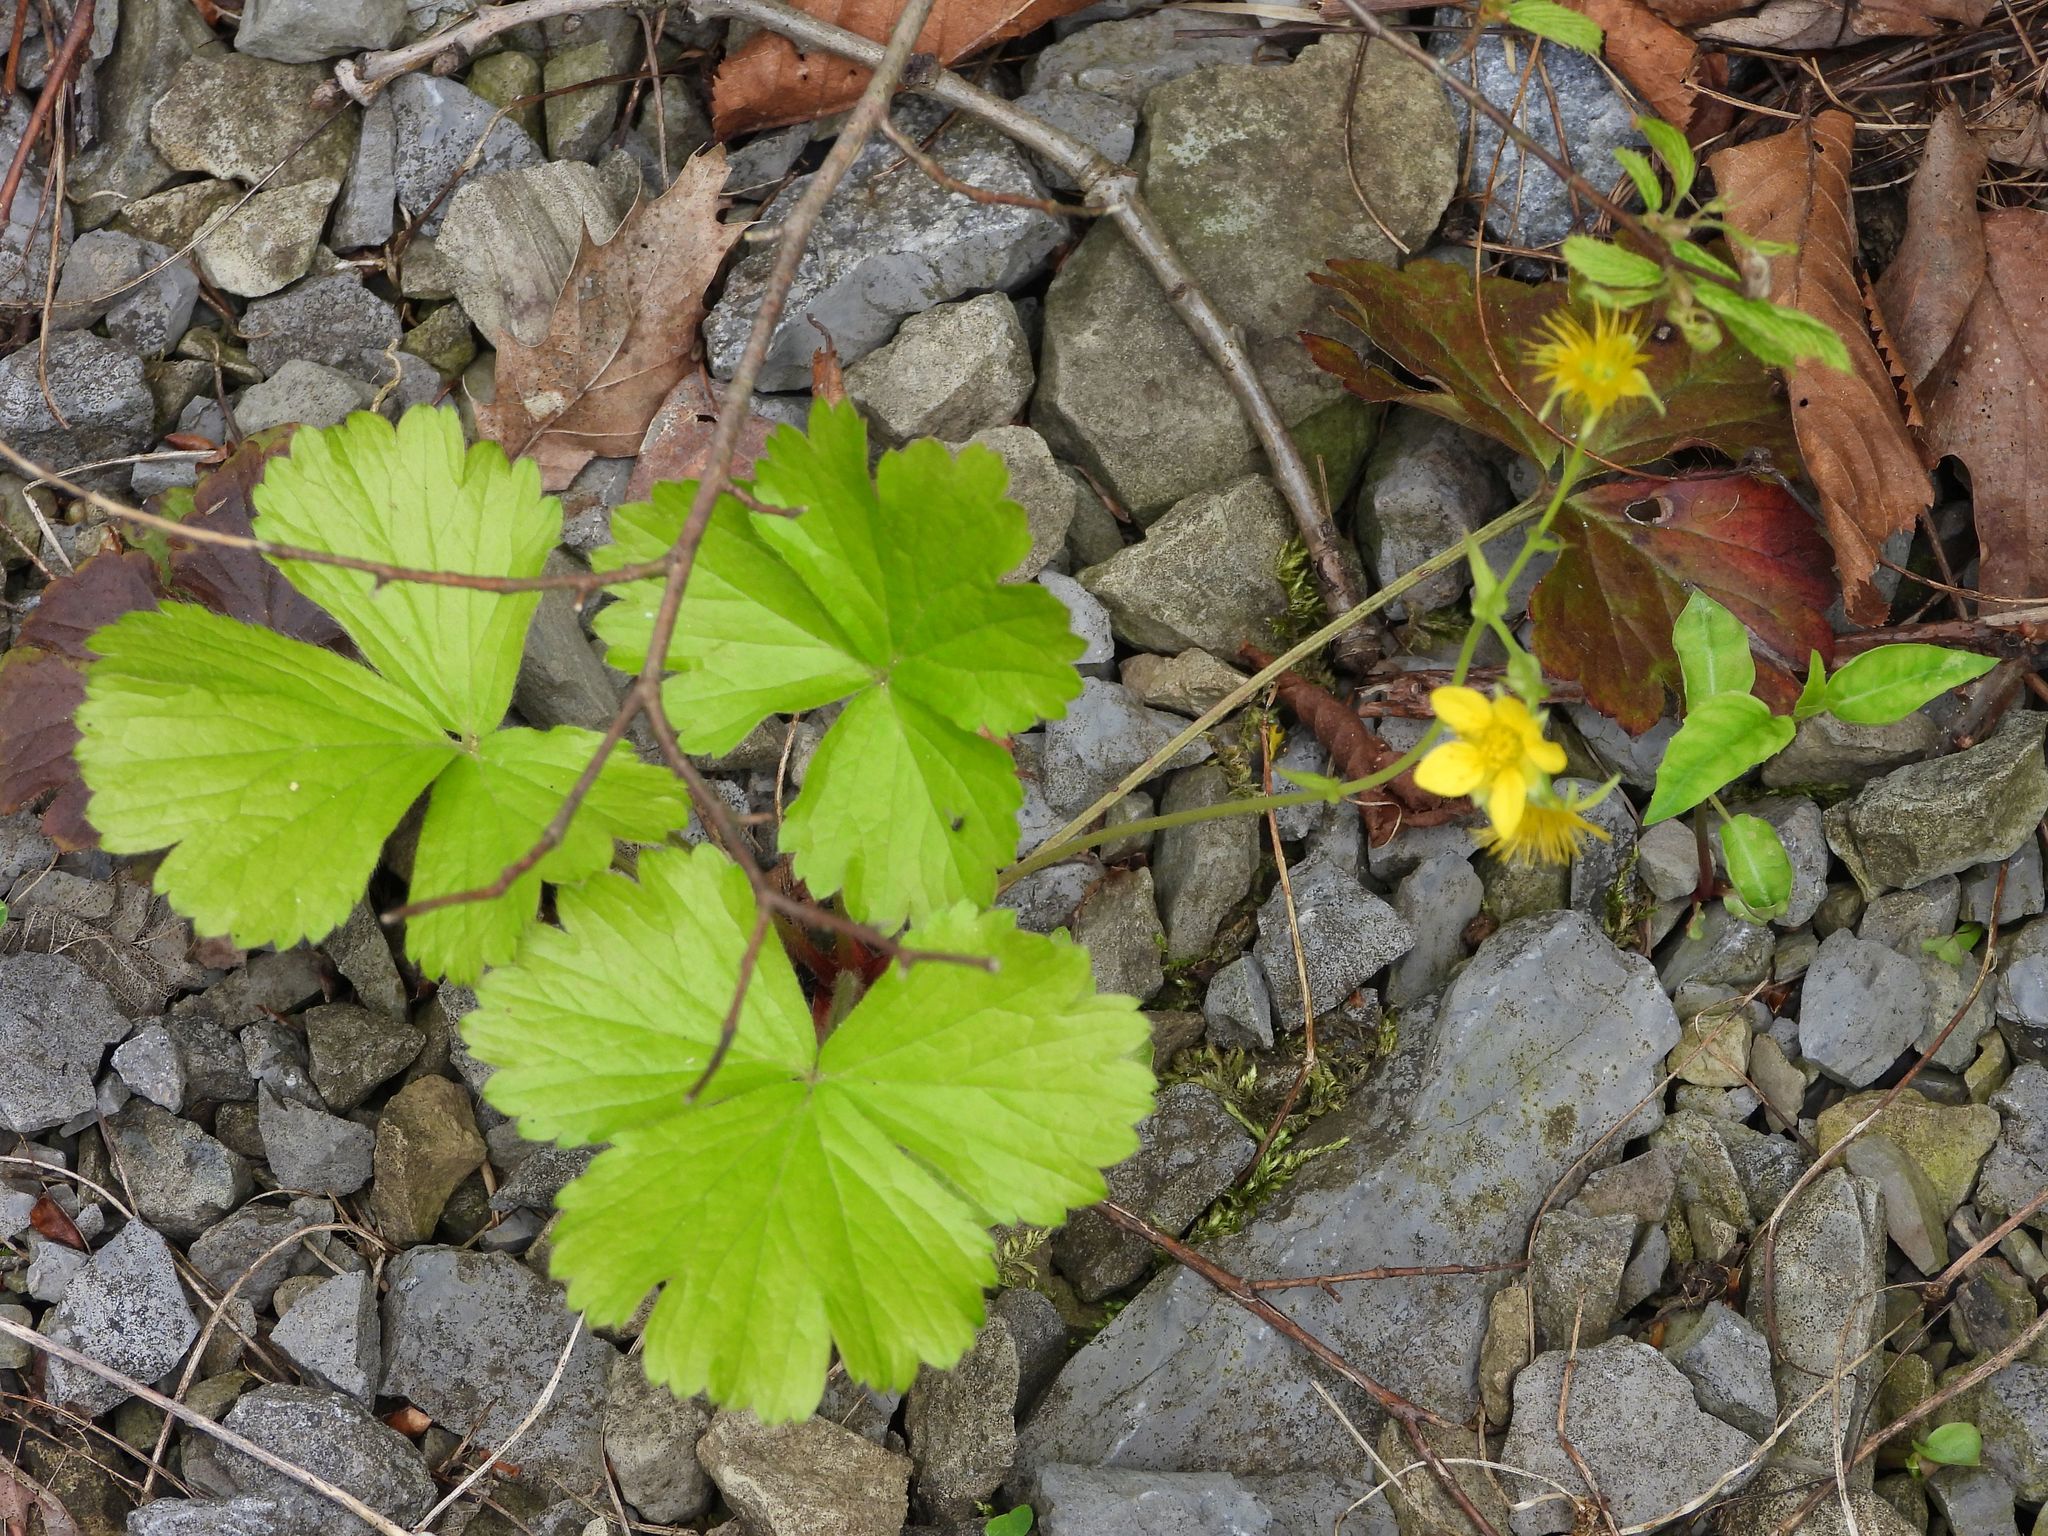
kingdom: Plantae
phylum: Tracheophyta
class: Magnoliopsida
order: Rosales
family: Rosaceae
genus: Geum
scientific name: Geum fragarioides
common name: Appalachian barren strawberry
